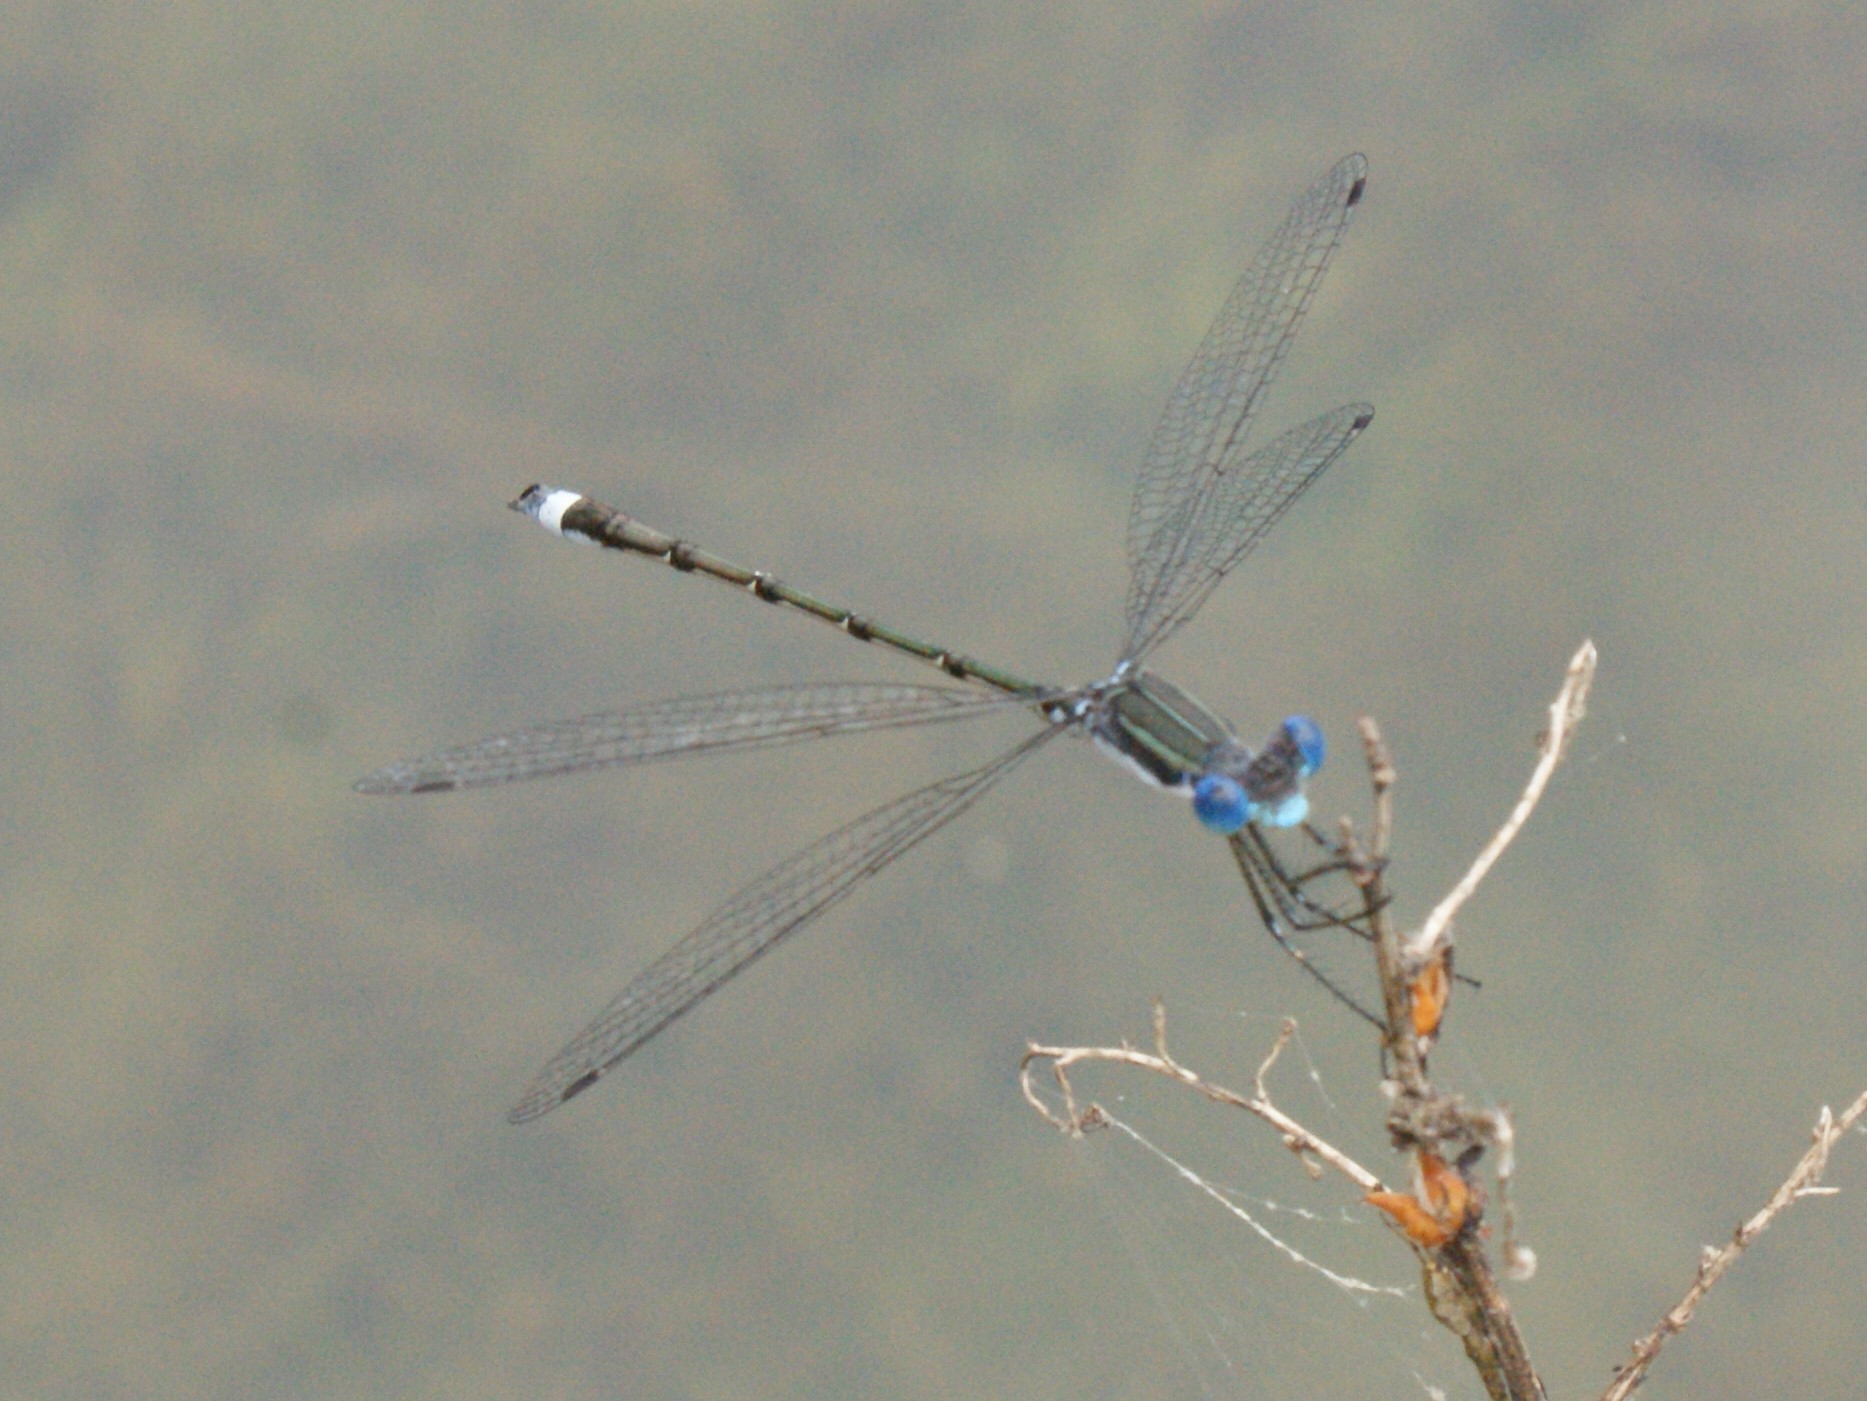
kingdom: Animalia
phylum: Arthropoda
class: Insecta
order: Odonata
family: Lestidae
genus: Lestes
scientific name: Lestes australis
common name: Southern spreadwing
